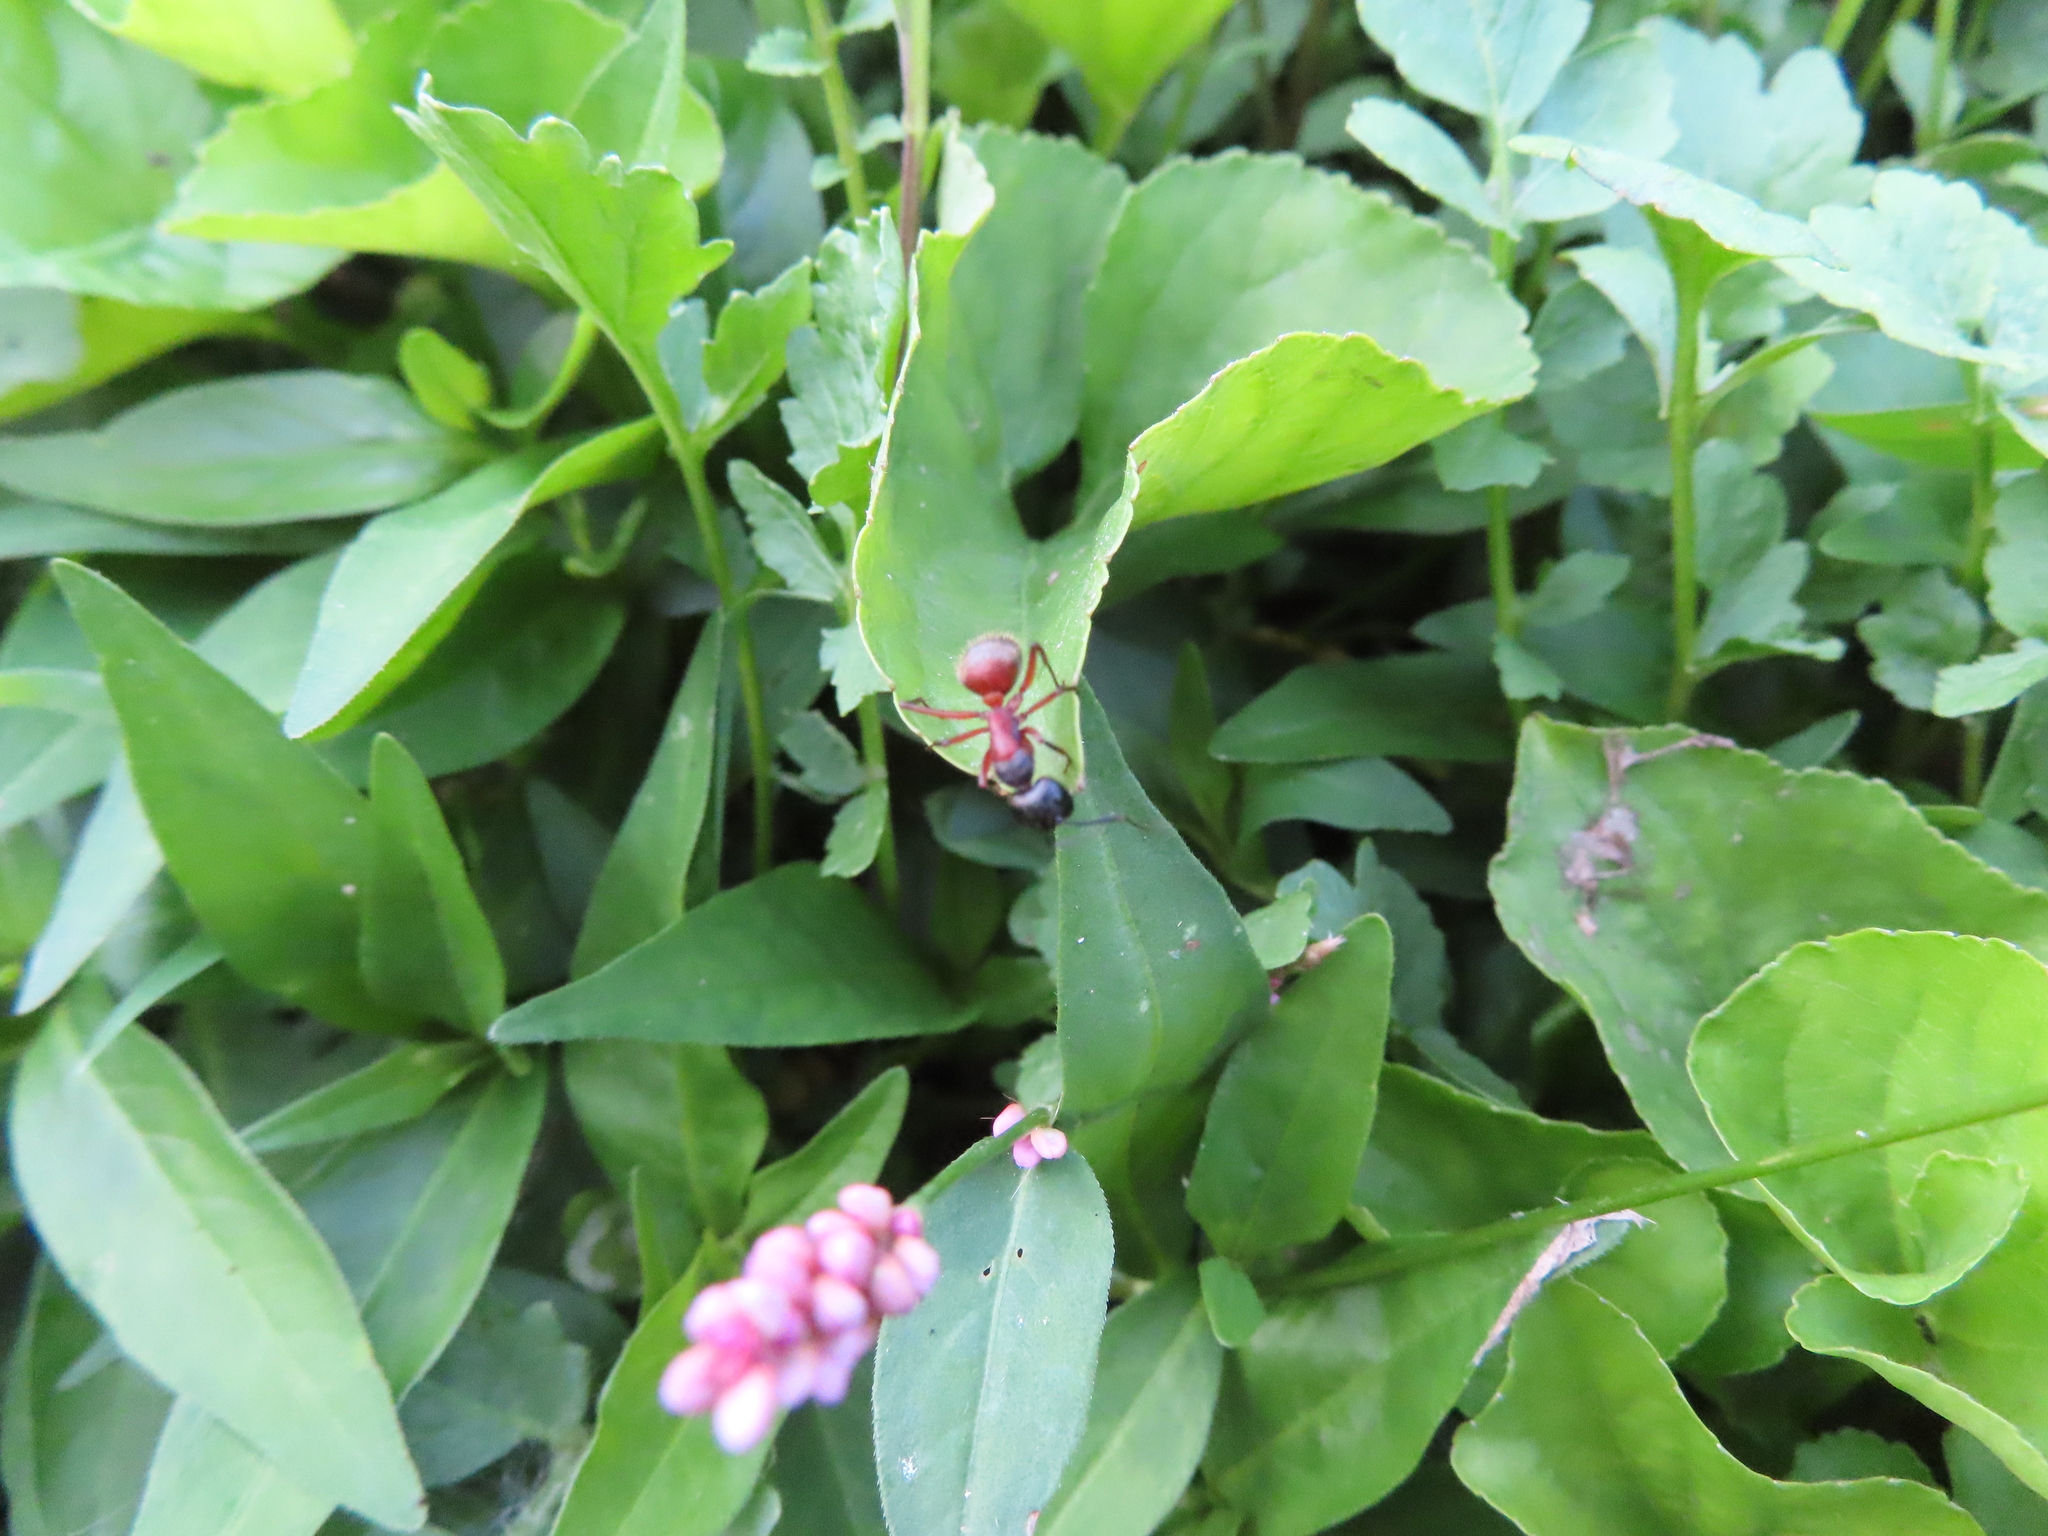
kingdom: Animalia
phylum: Arthropoda
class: Insecta
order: Hymenoptera
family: Formicidae
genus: Camponotus
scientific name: Camponotus chromaiodes
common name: Red carpenter ant
